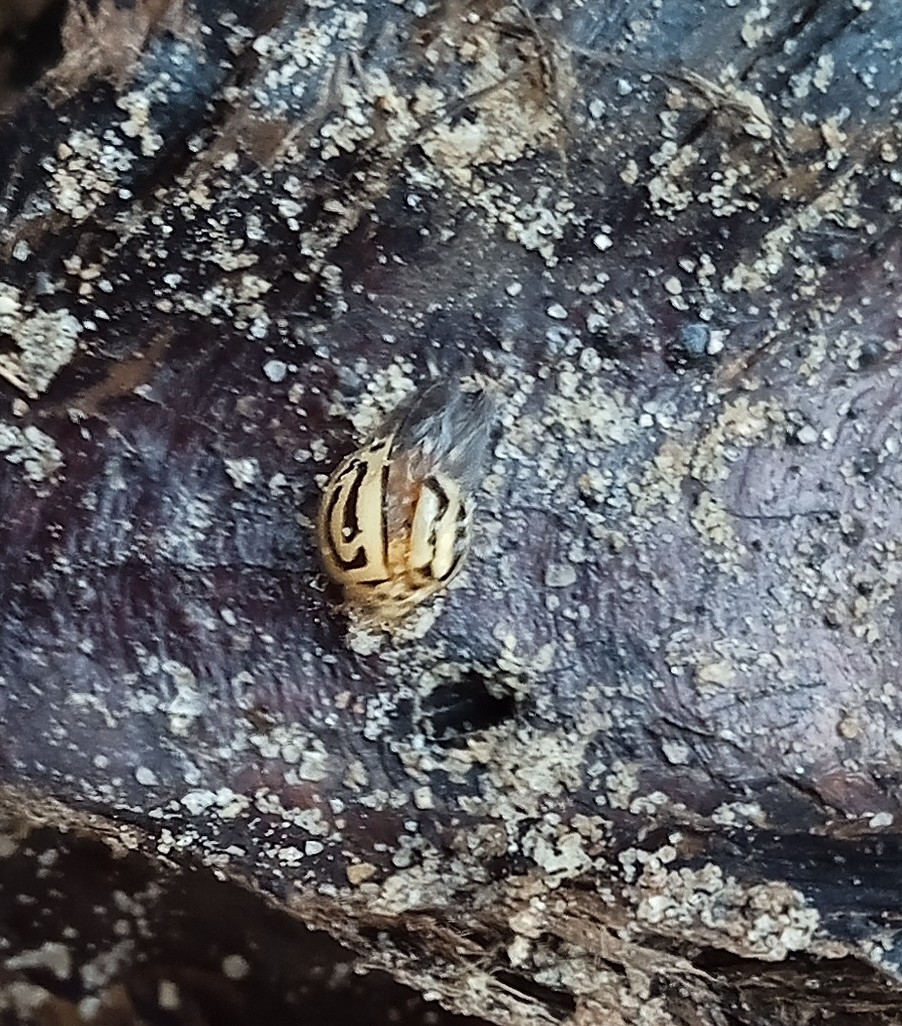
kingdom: Animalia
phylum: Arthropoda
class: Insecta
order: Coleoptera
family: Coccinellidae
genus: Anegleis
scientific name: Anegleis cardoni
